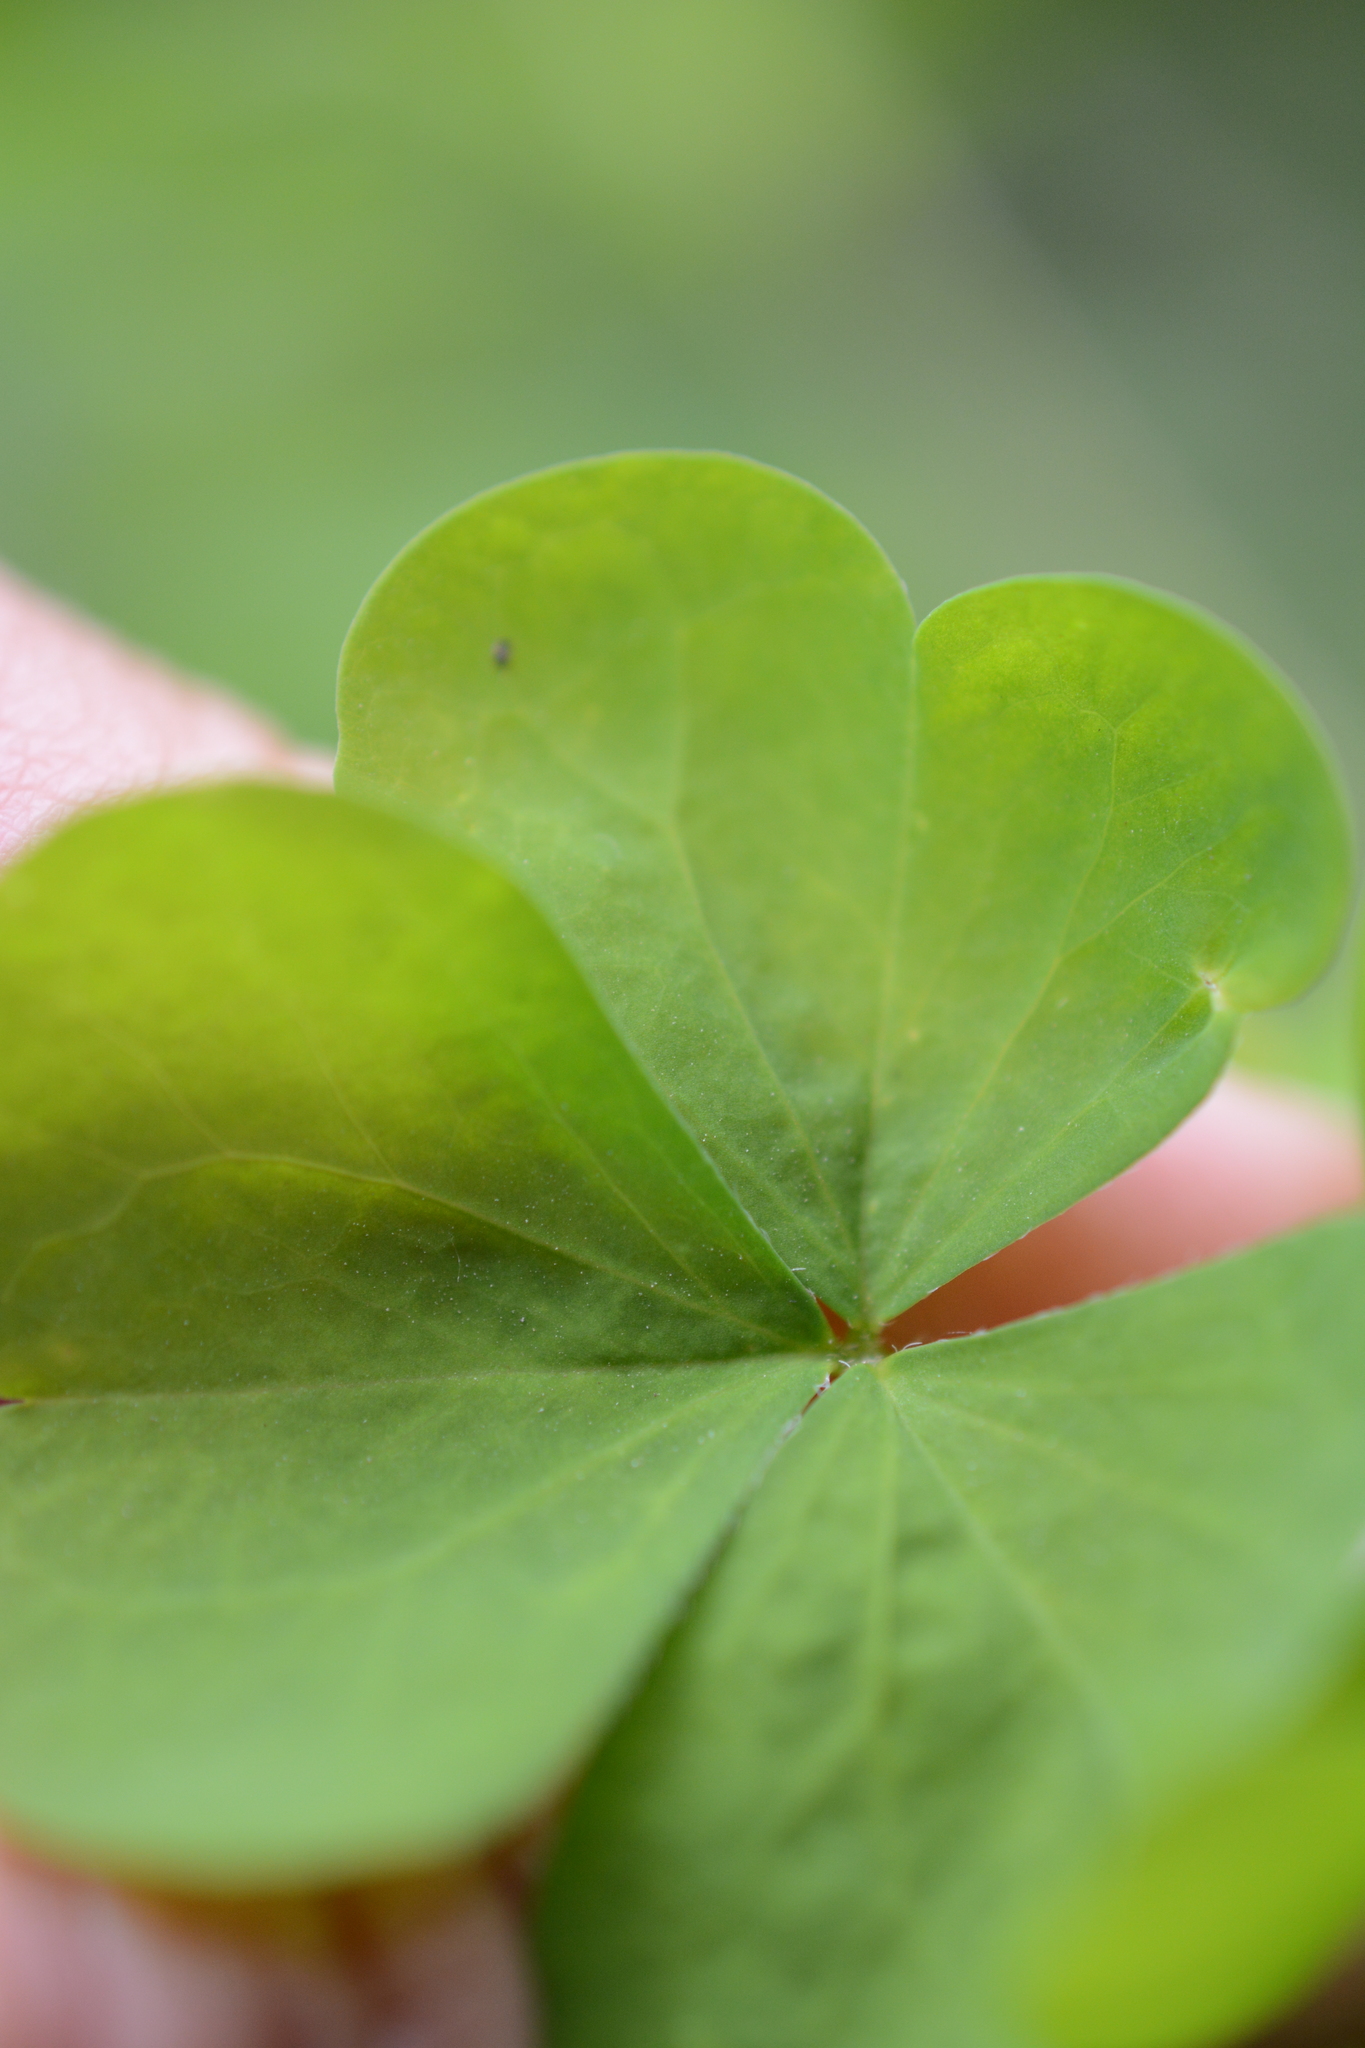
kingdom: Plantae
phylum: Tracheophyta
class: Magnoliopsida
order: Oxalidales
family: Oxalidaceae
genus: Oxalis
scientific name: Oxalis stricta
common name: Upright yellow-sorrel
